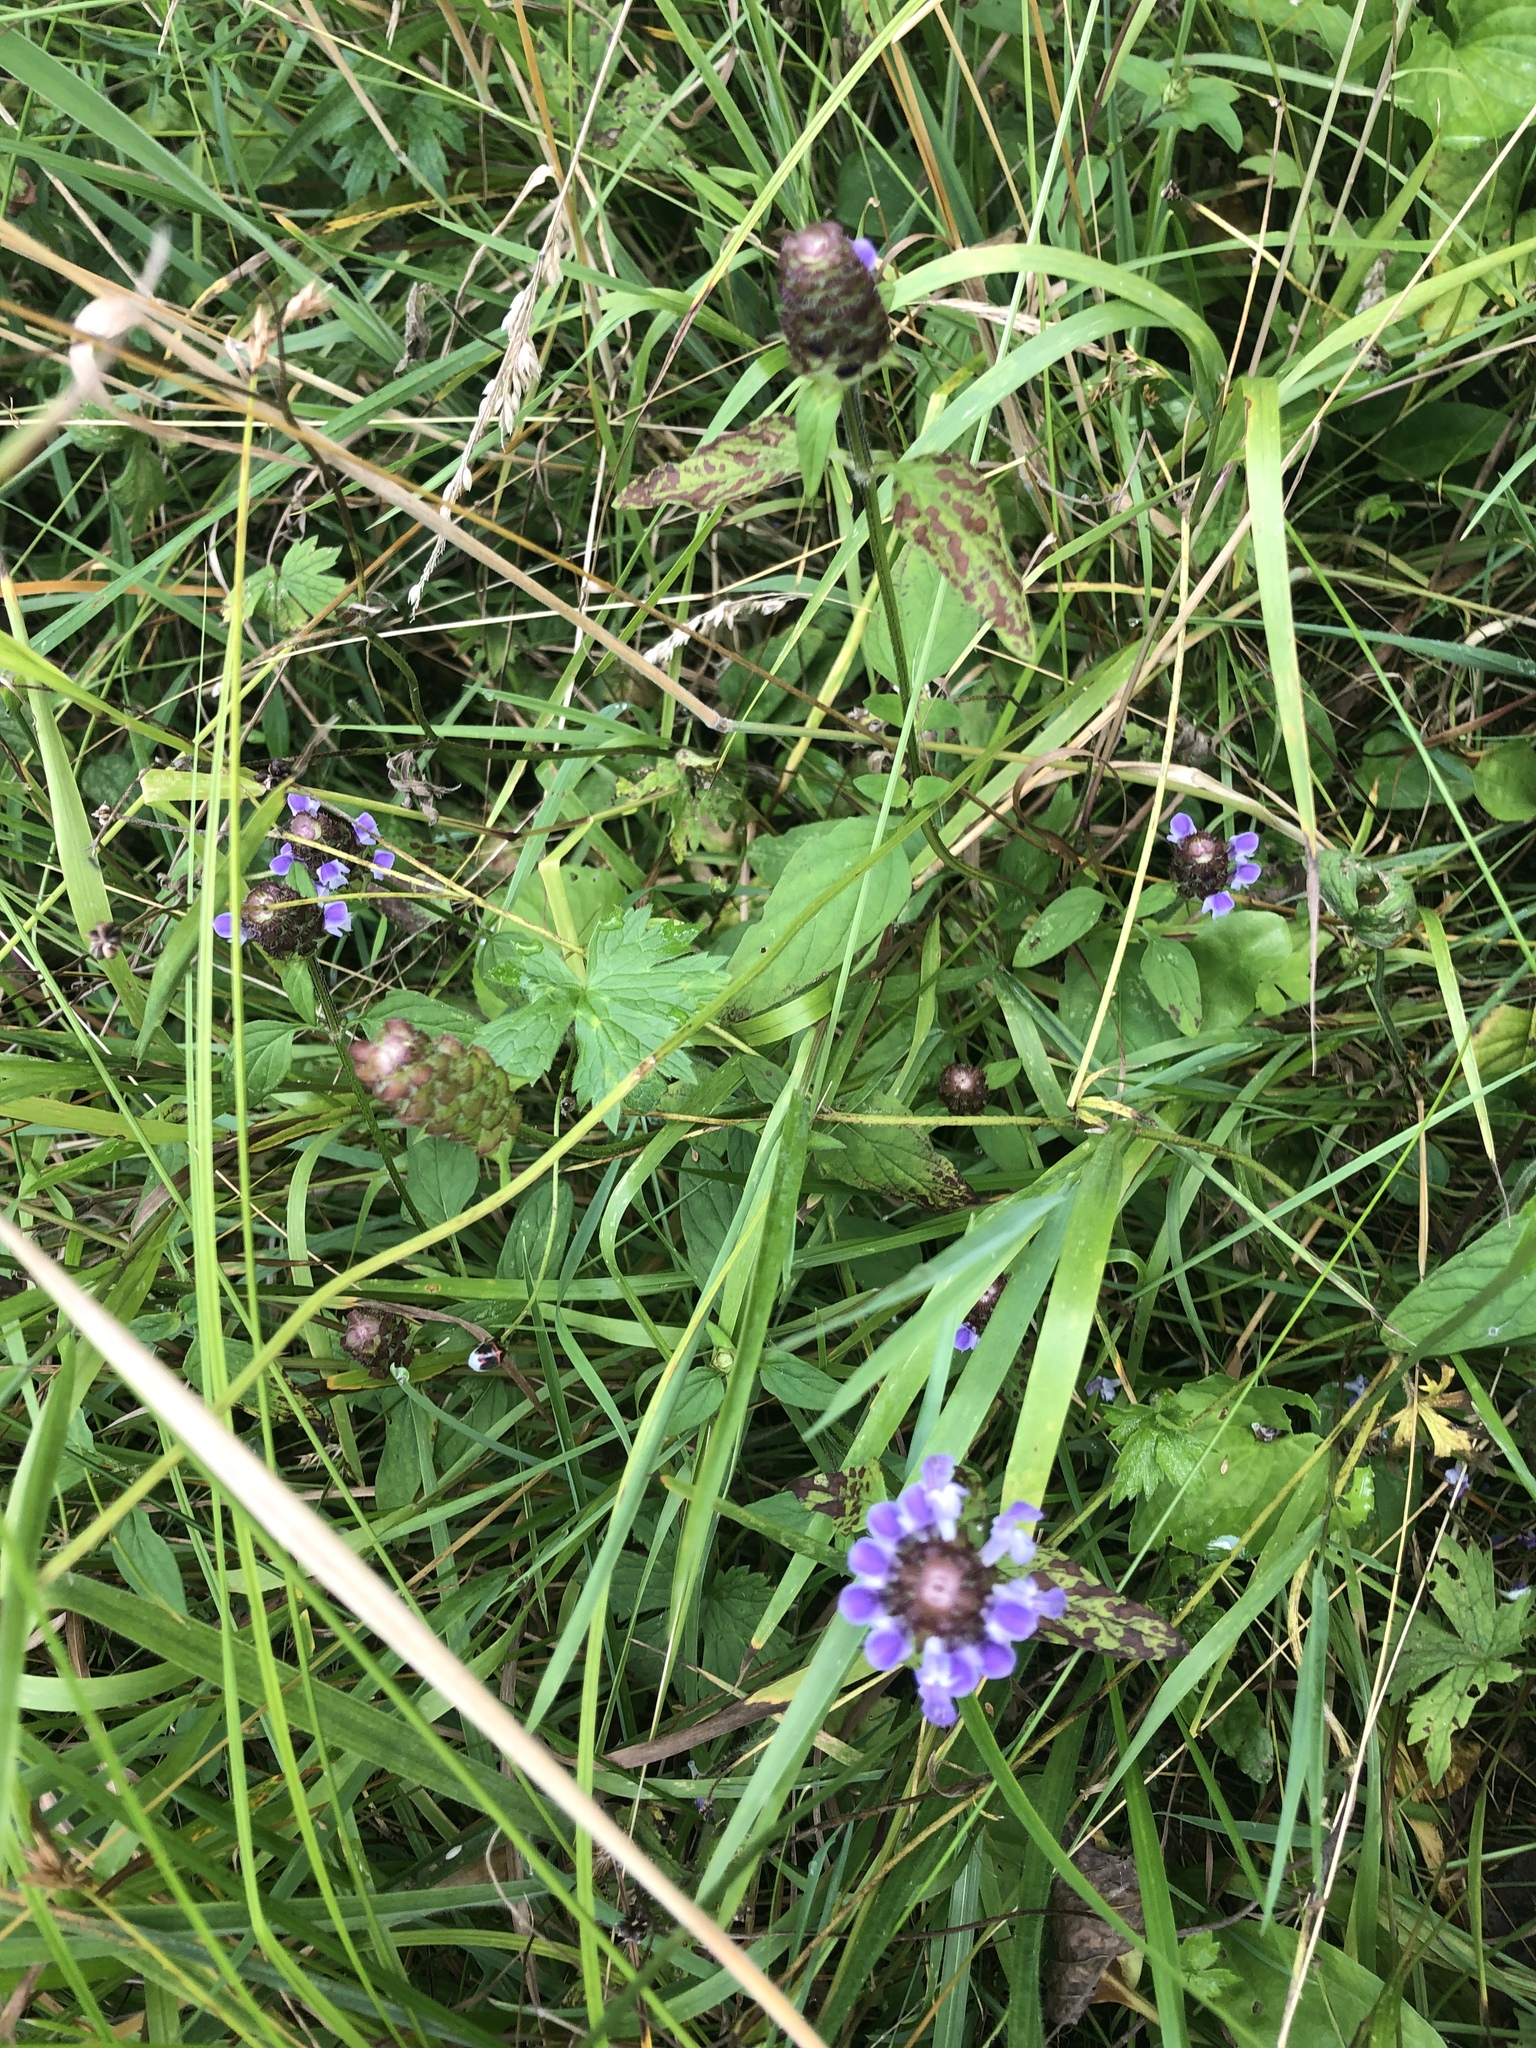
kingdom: Plantae
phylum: Tracheophyta
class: Magnoliopsida
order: Lamiales
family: Lamiaceae
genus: Prunella
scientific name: Prunella vulgaris
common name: Heal-all
